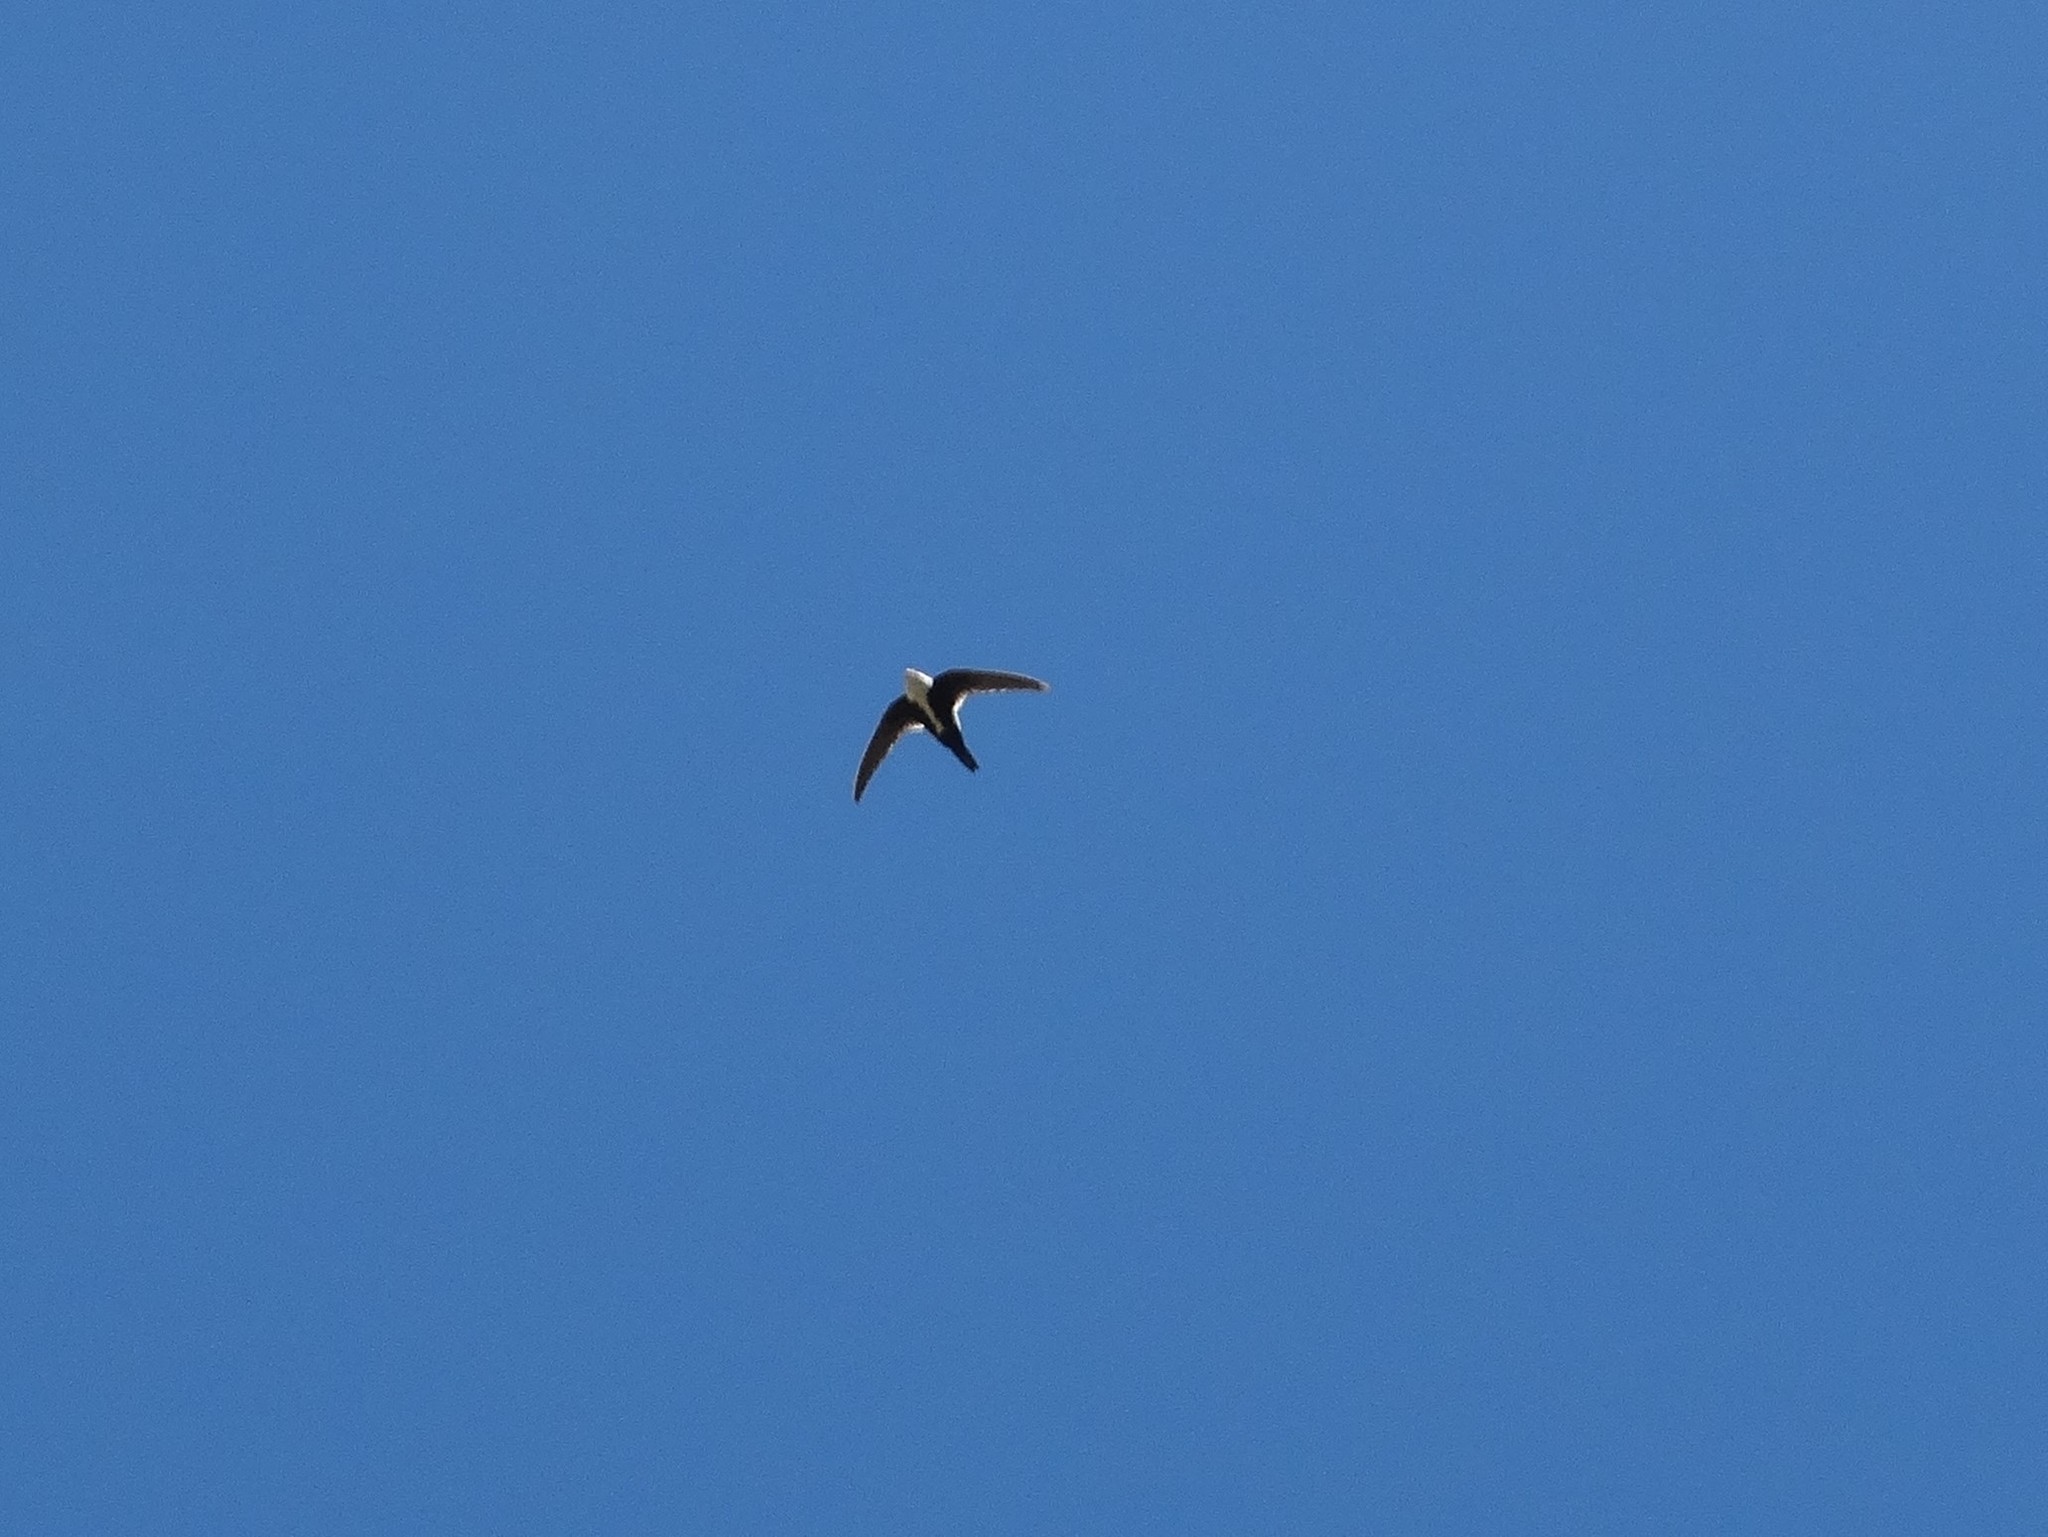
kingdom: Animalia
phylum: Chordata
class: Aves
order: Apodiformes
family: Apodidae
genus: Aeronautes
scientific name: Aeronautes saxatalis
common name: White-throated swift
